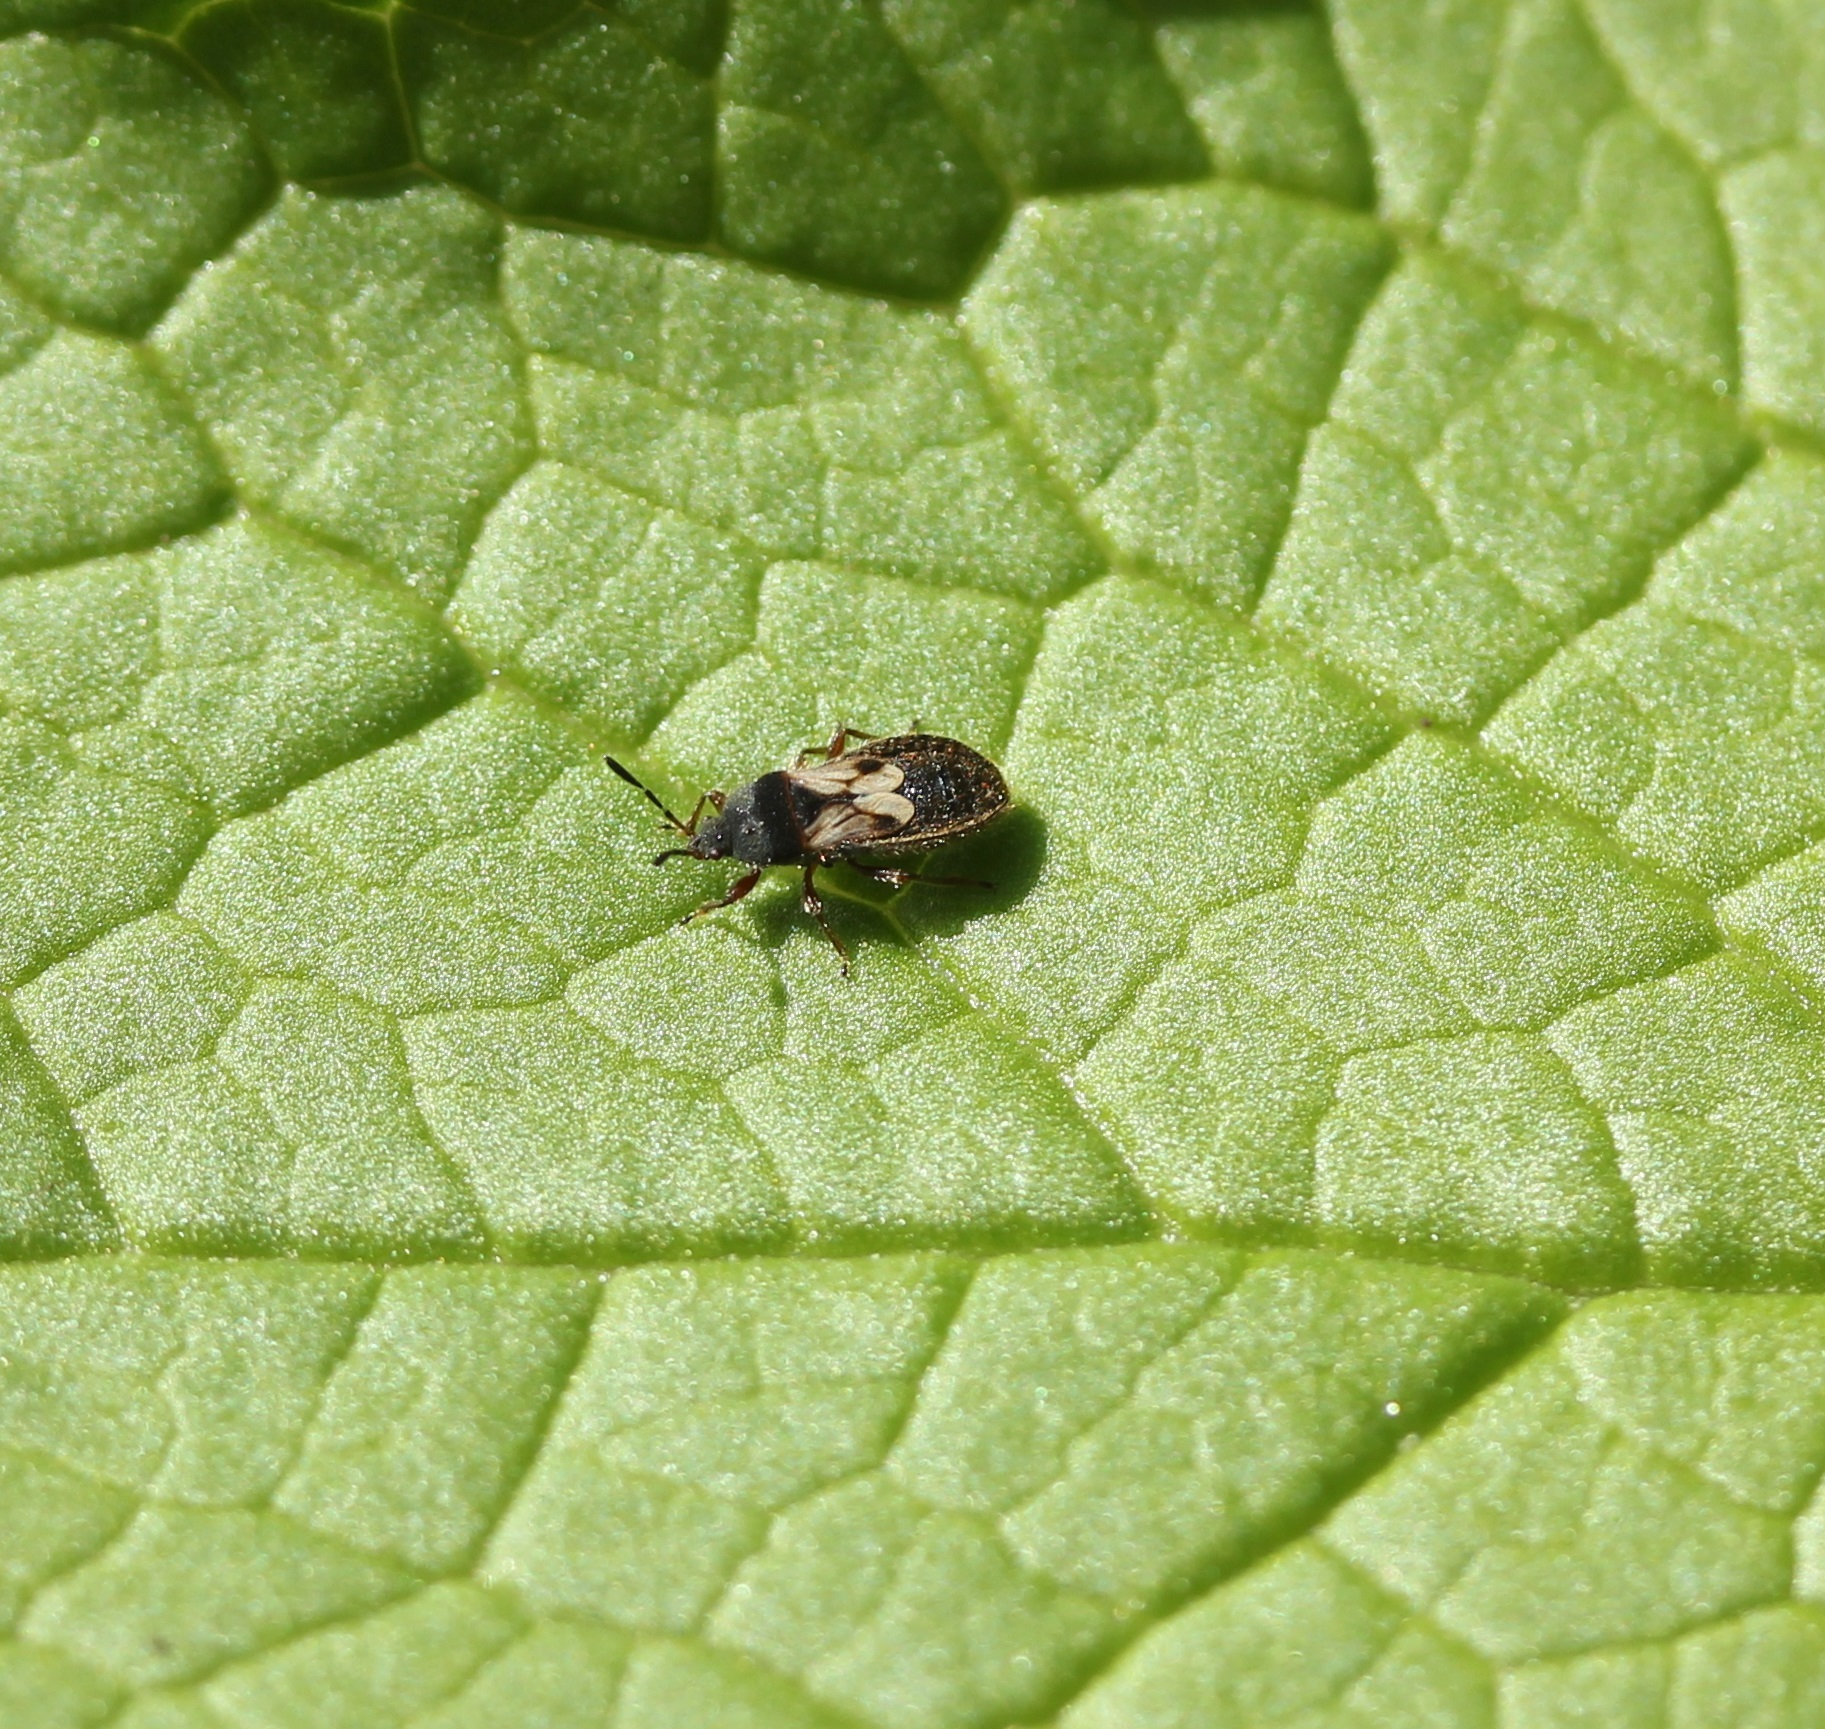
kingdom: Animalia
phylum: Arthropoda
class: Insecta
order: Hemiptera
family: Blissidae
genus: Blissus
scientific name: Blissus leucopterus
